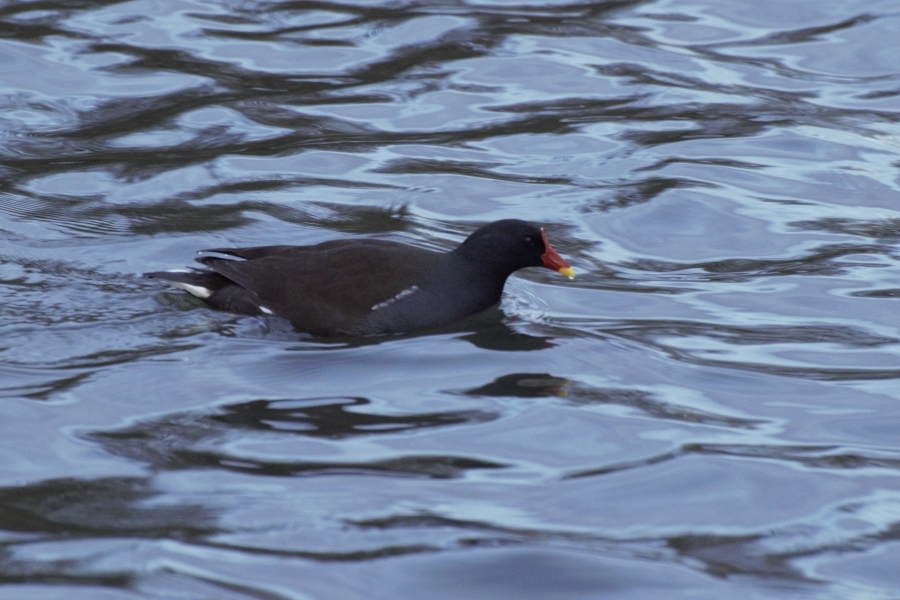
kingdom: Animalia
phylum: Chordata
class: Aves
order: Gruiformes
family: Rallidae
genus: Gallinula
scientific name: Gallinula chloropus
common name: Common moorhen
